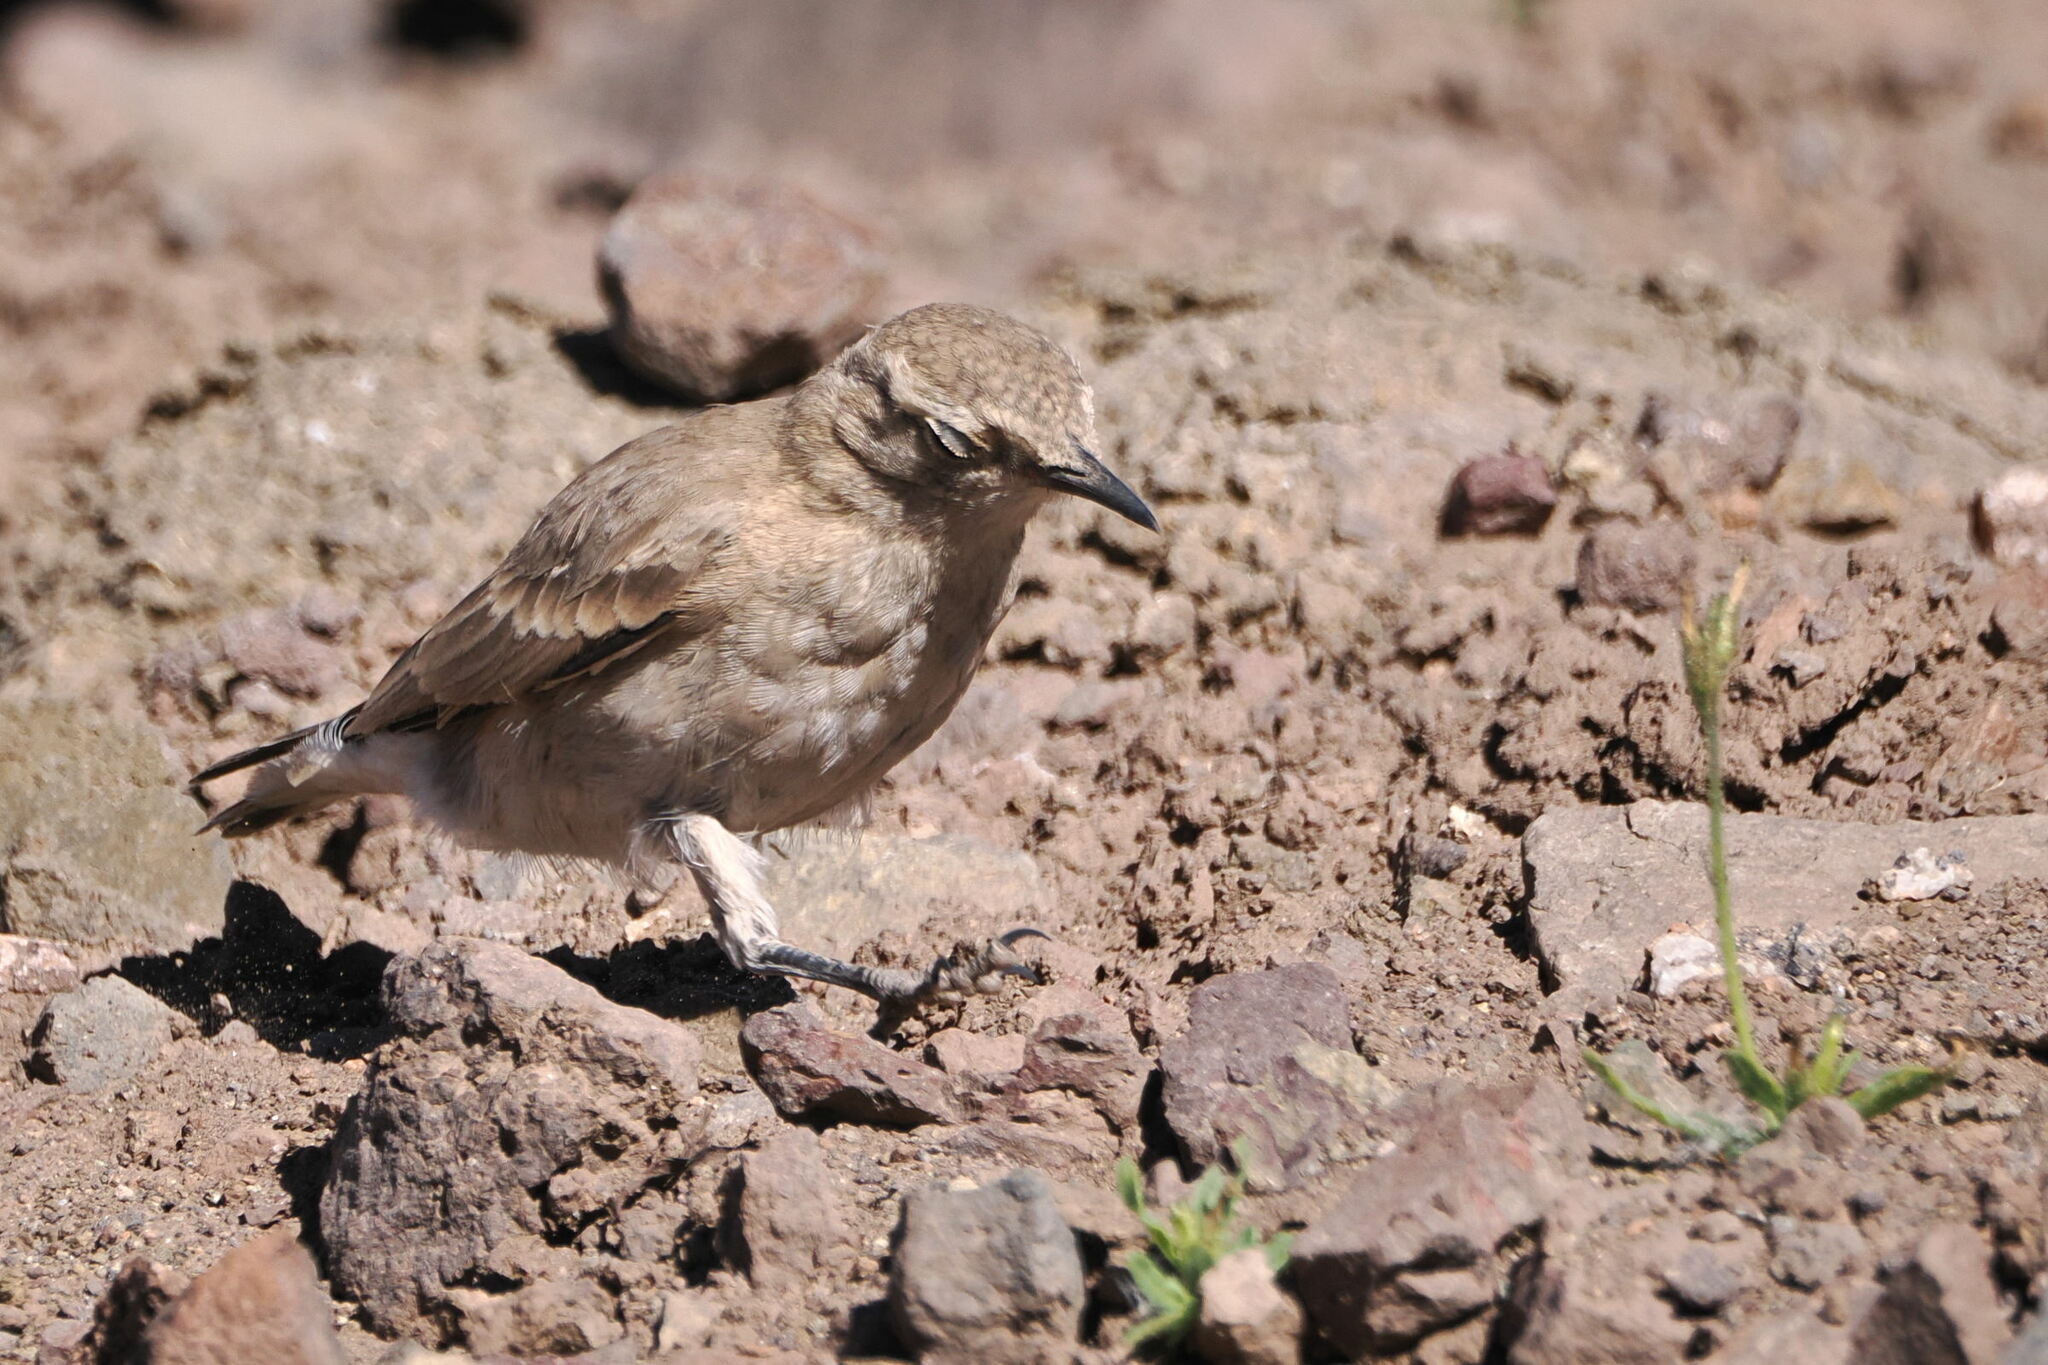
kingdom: Animalia
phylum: Chordata
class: Aves
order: Passeriformes
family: Furnariidae
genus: Geositta
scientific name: Geositta isabellina
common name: Creamy-rumped miner
